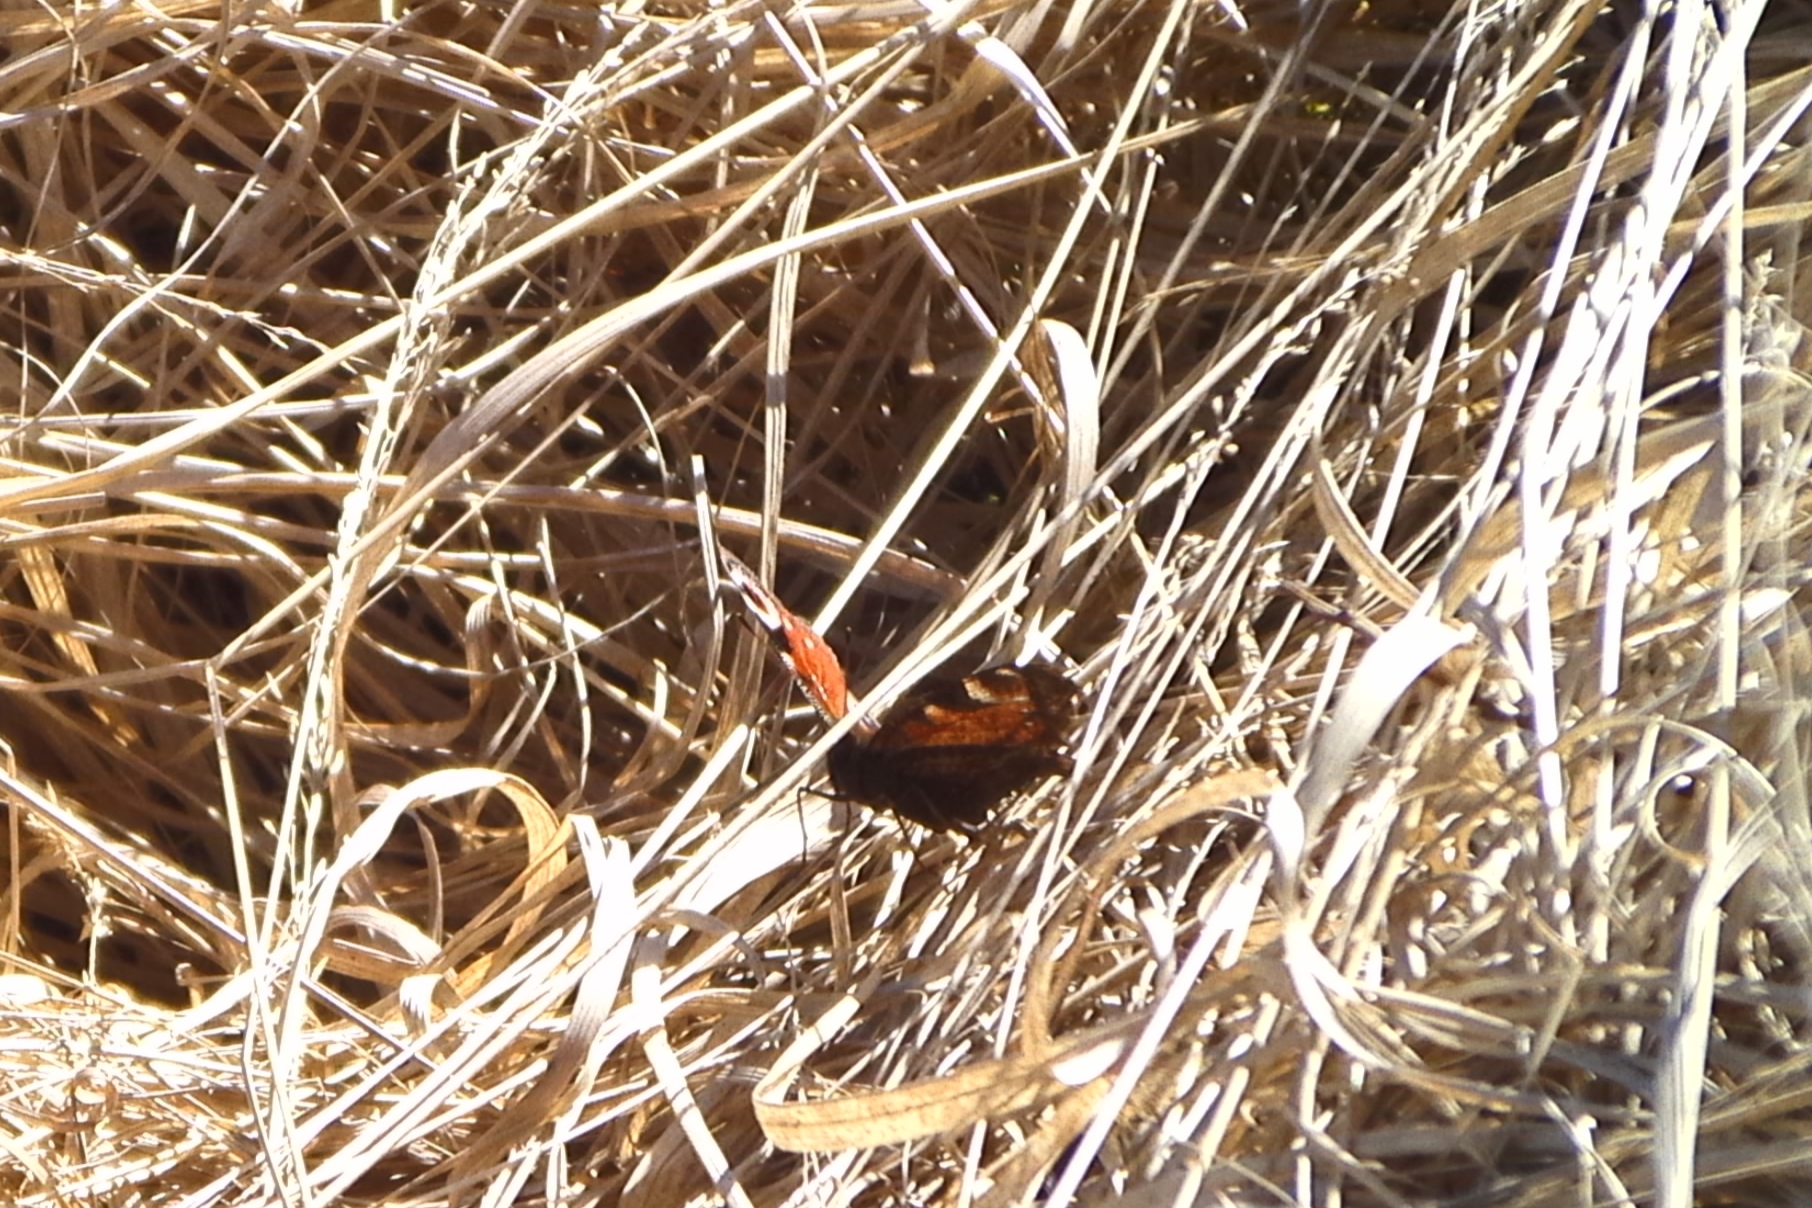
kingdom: Animalia
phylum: Arthropoda
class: Insecta
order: Lepidoptera
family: Nymphalidae
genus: Aglais
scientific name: Aglais io
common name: Peacock
